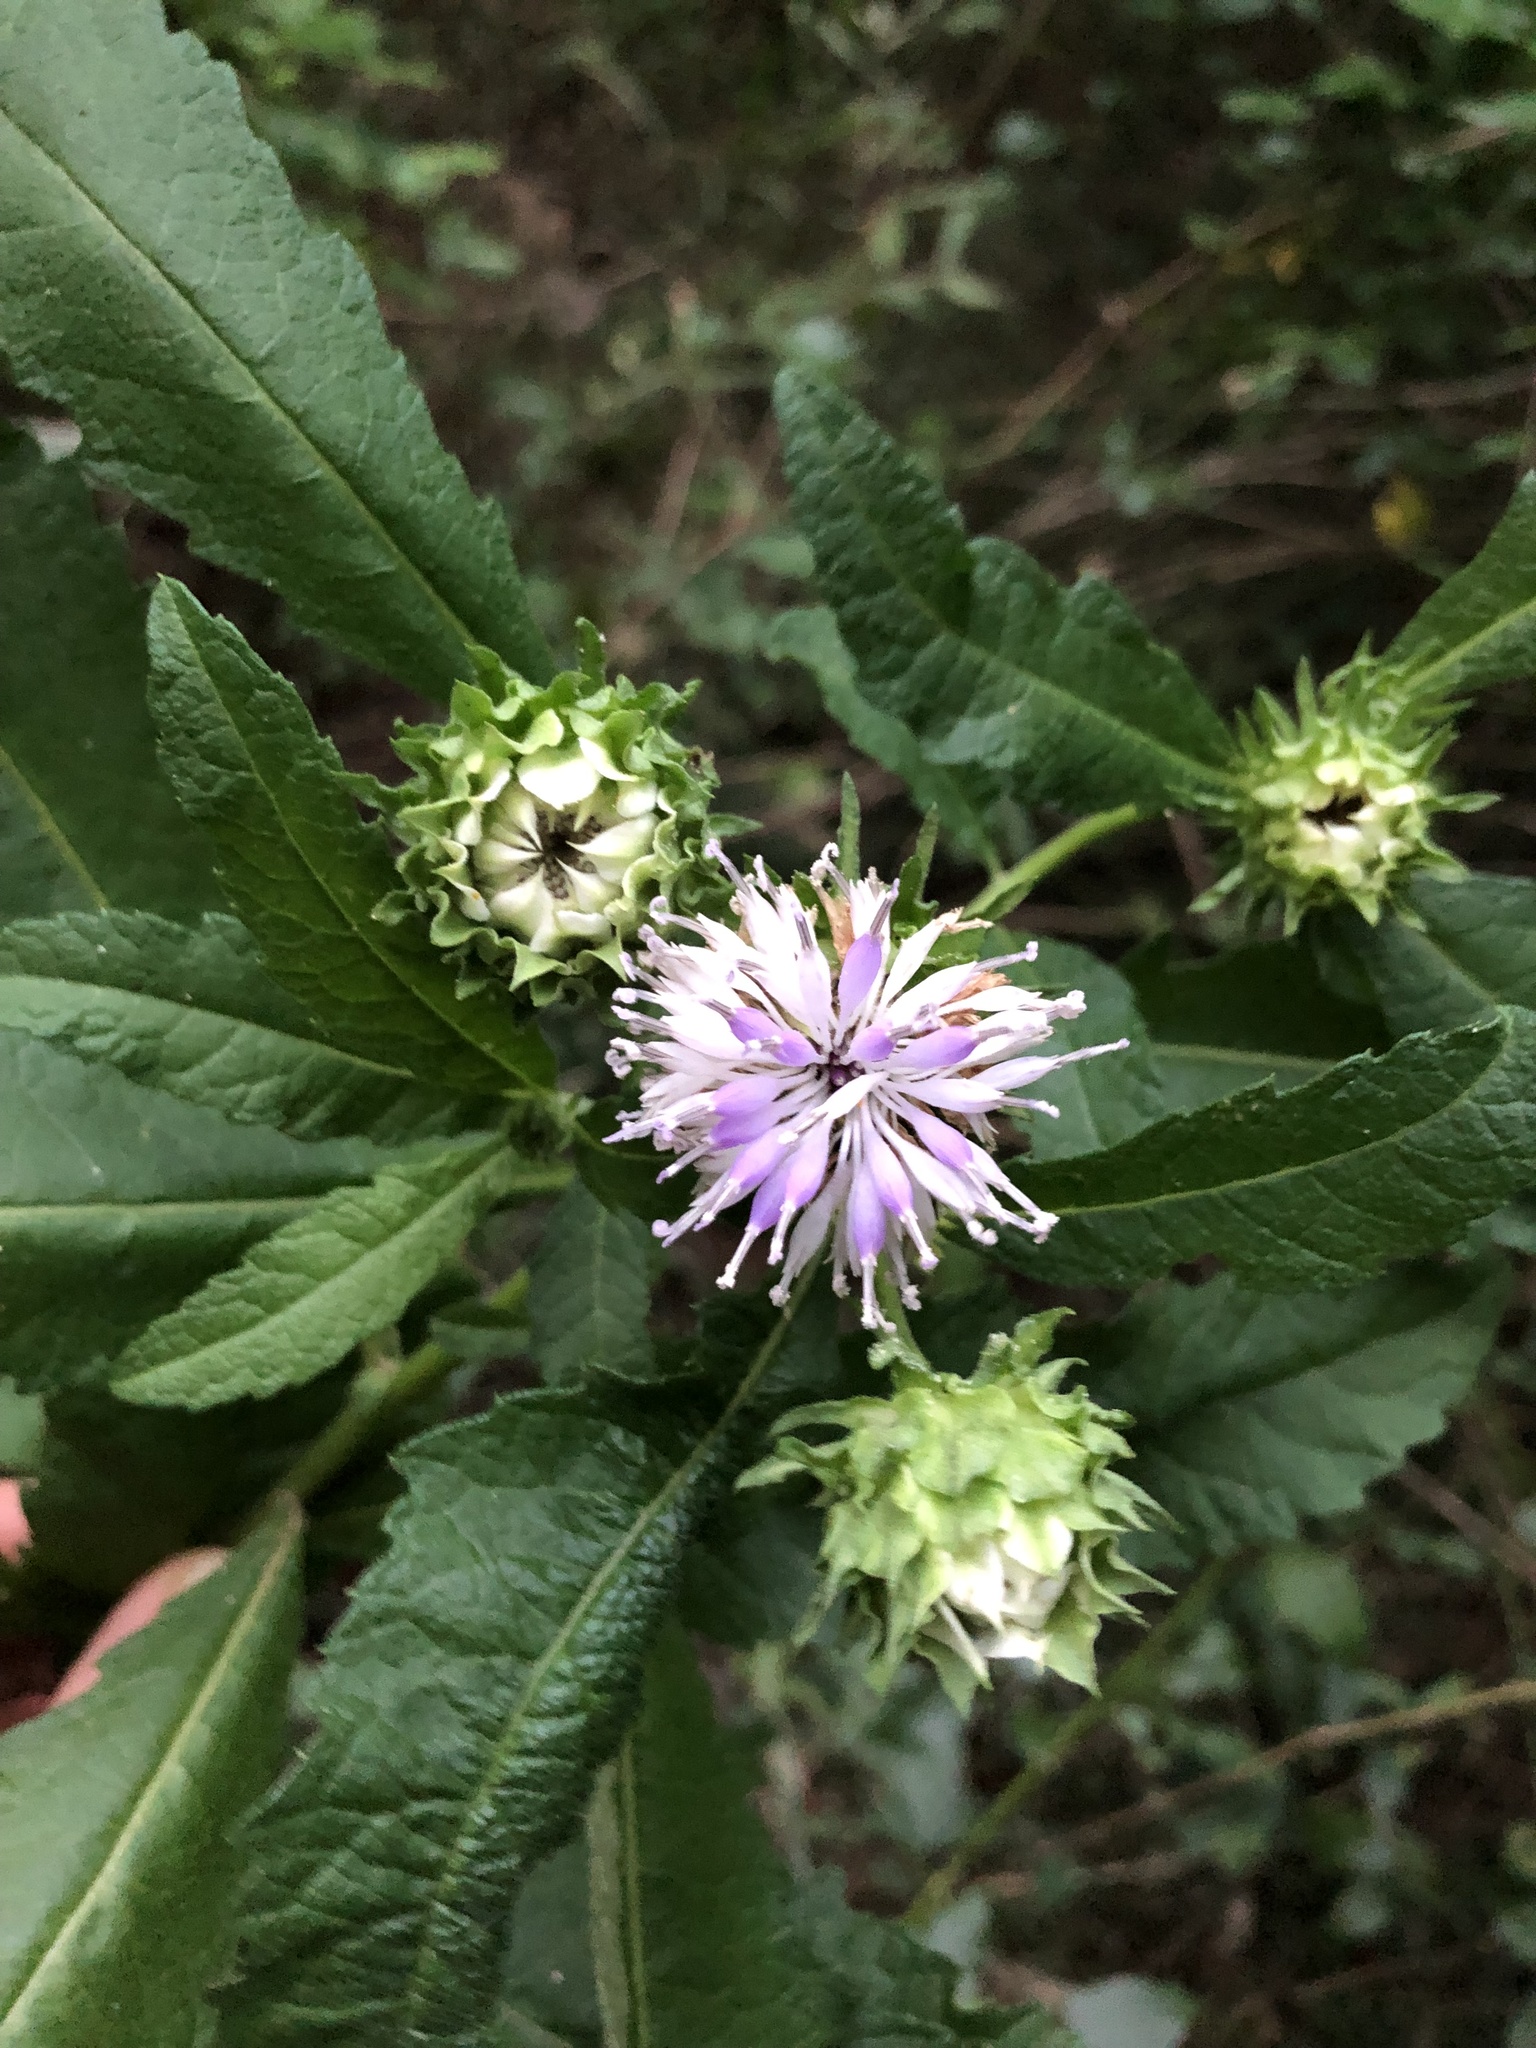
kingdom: Plantae
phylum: Tracheophyta
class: Magnoliopsida
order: Asterales
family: Asteraceae
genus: Baccharoides
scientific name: Baccharoides adoensis
